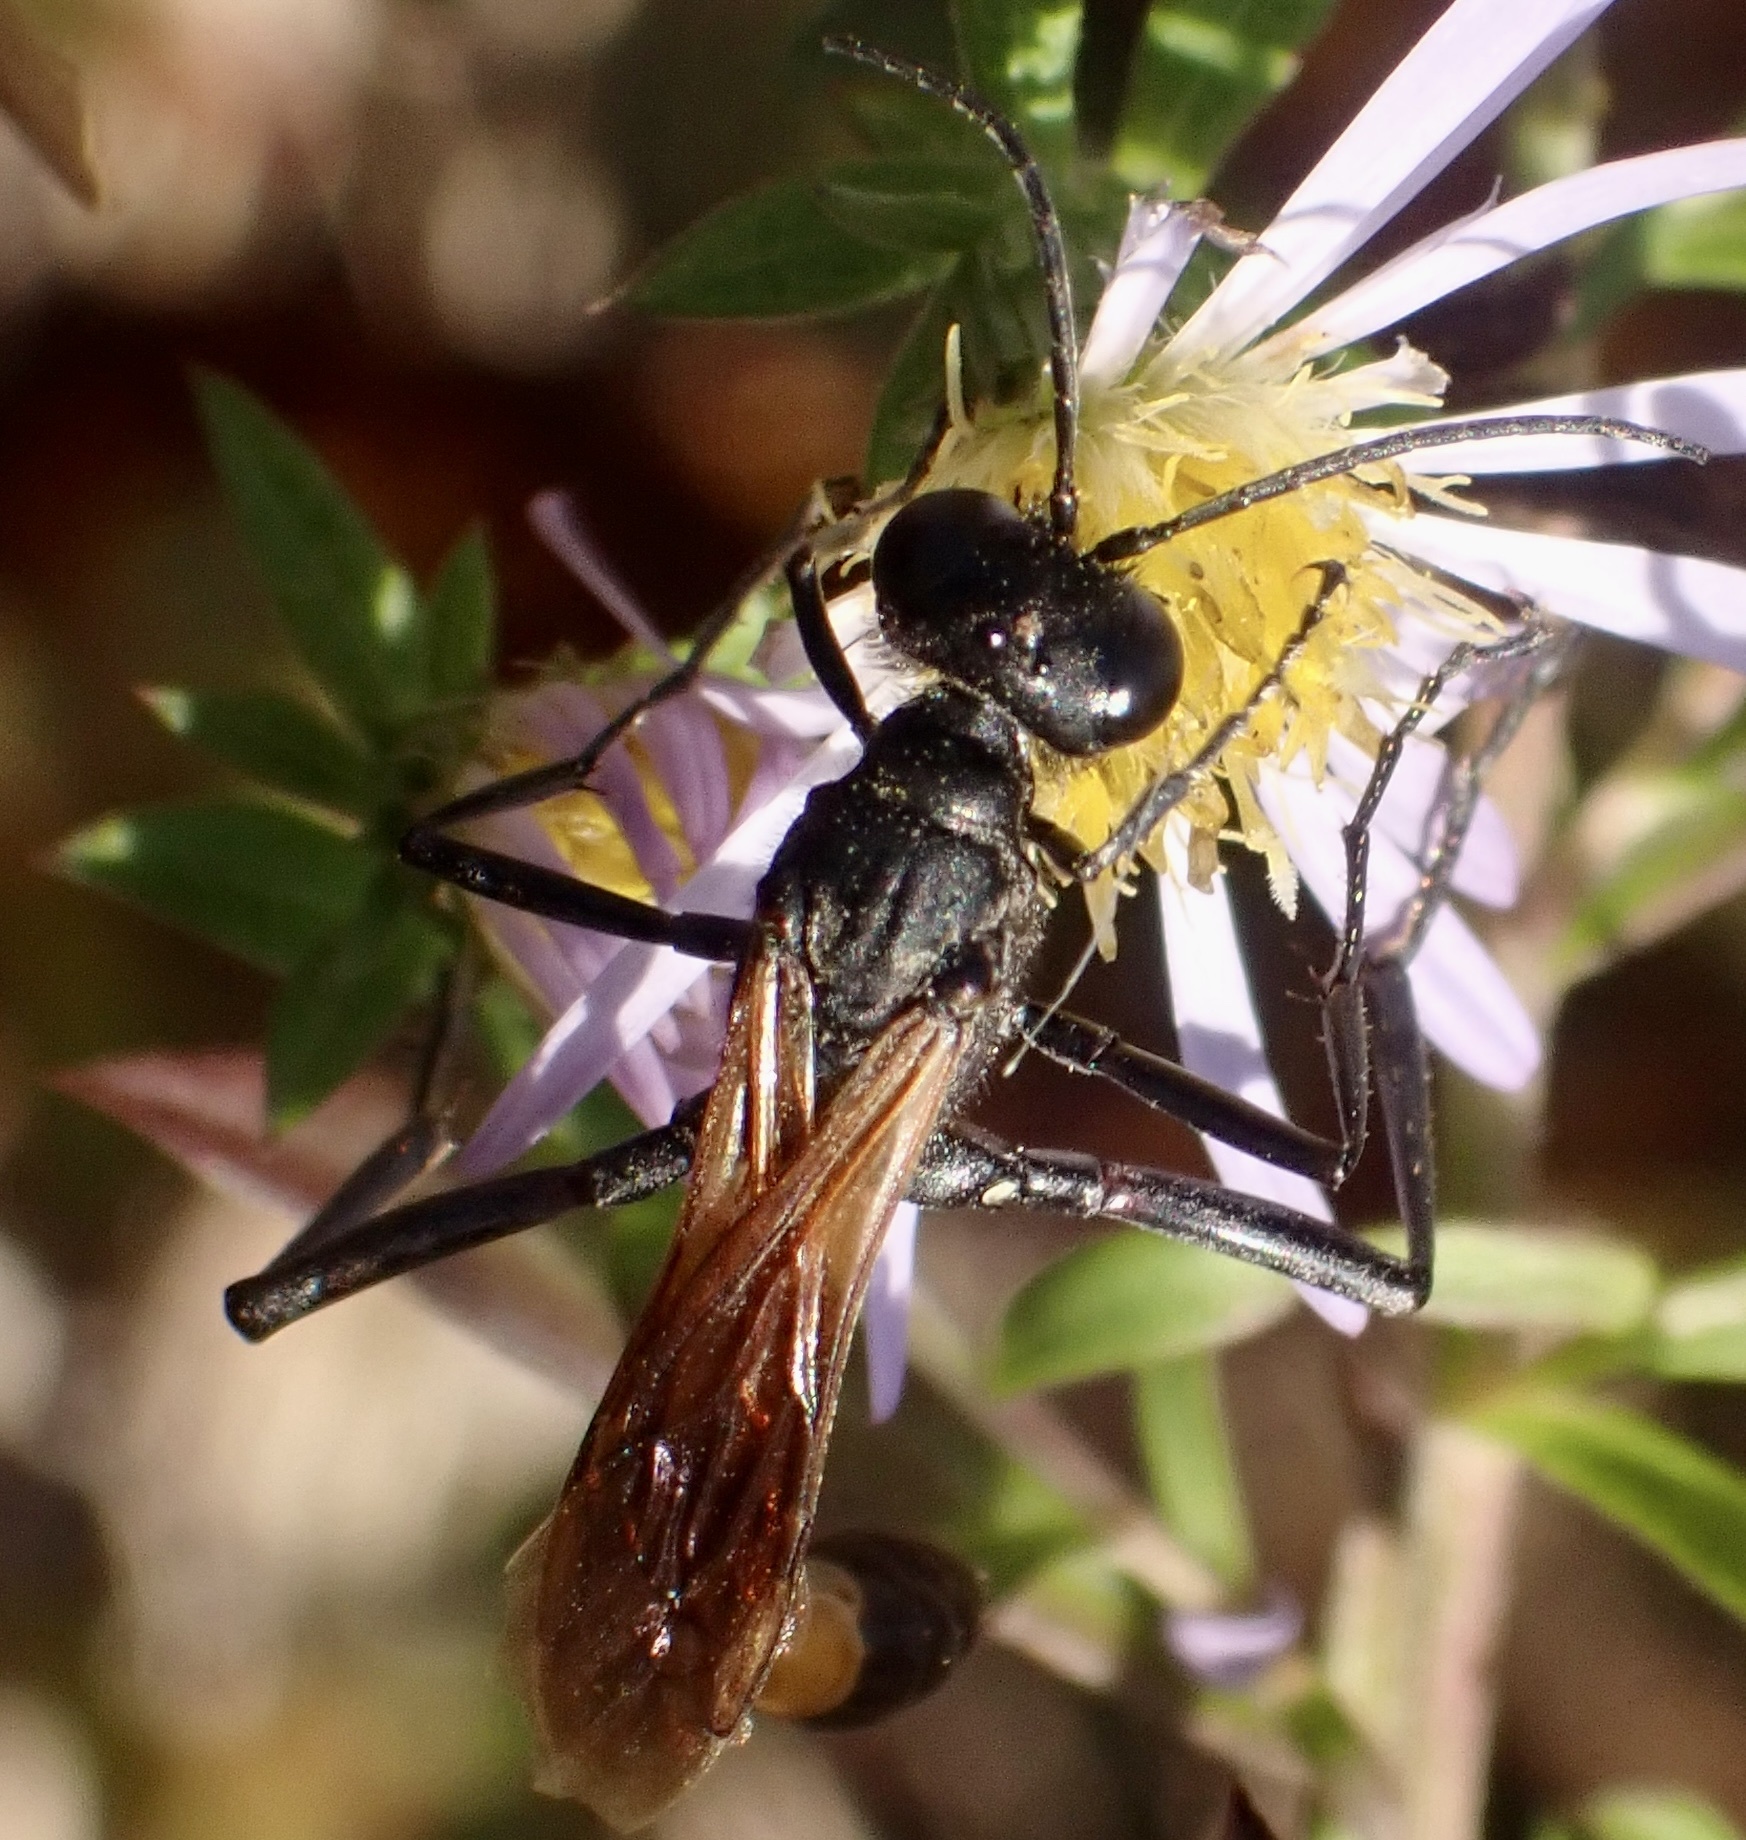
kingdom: Animalia
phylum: Arthropoda
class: Insecta
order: Hymenoptera
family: Sphecidae
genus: Ammophila
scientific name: Ammophila pictipennis
